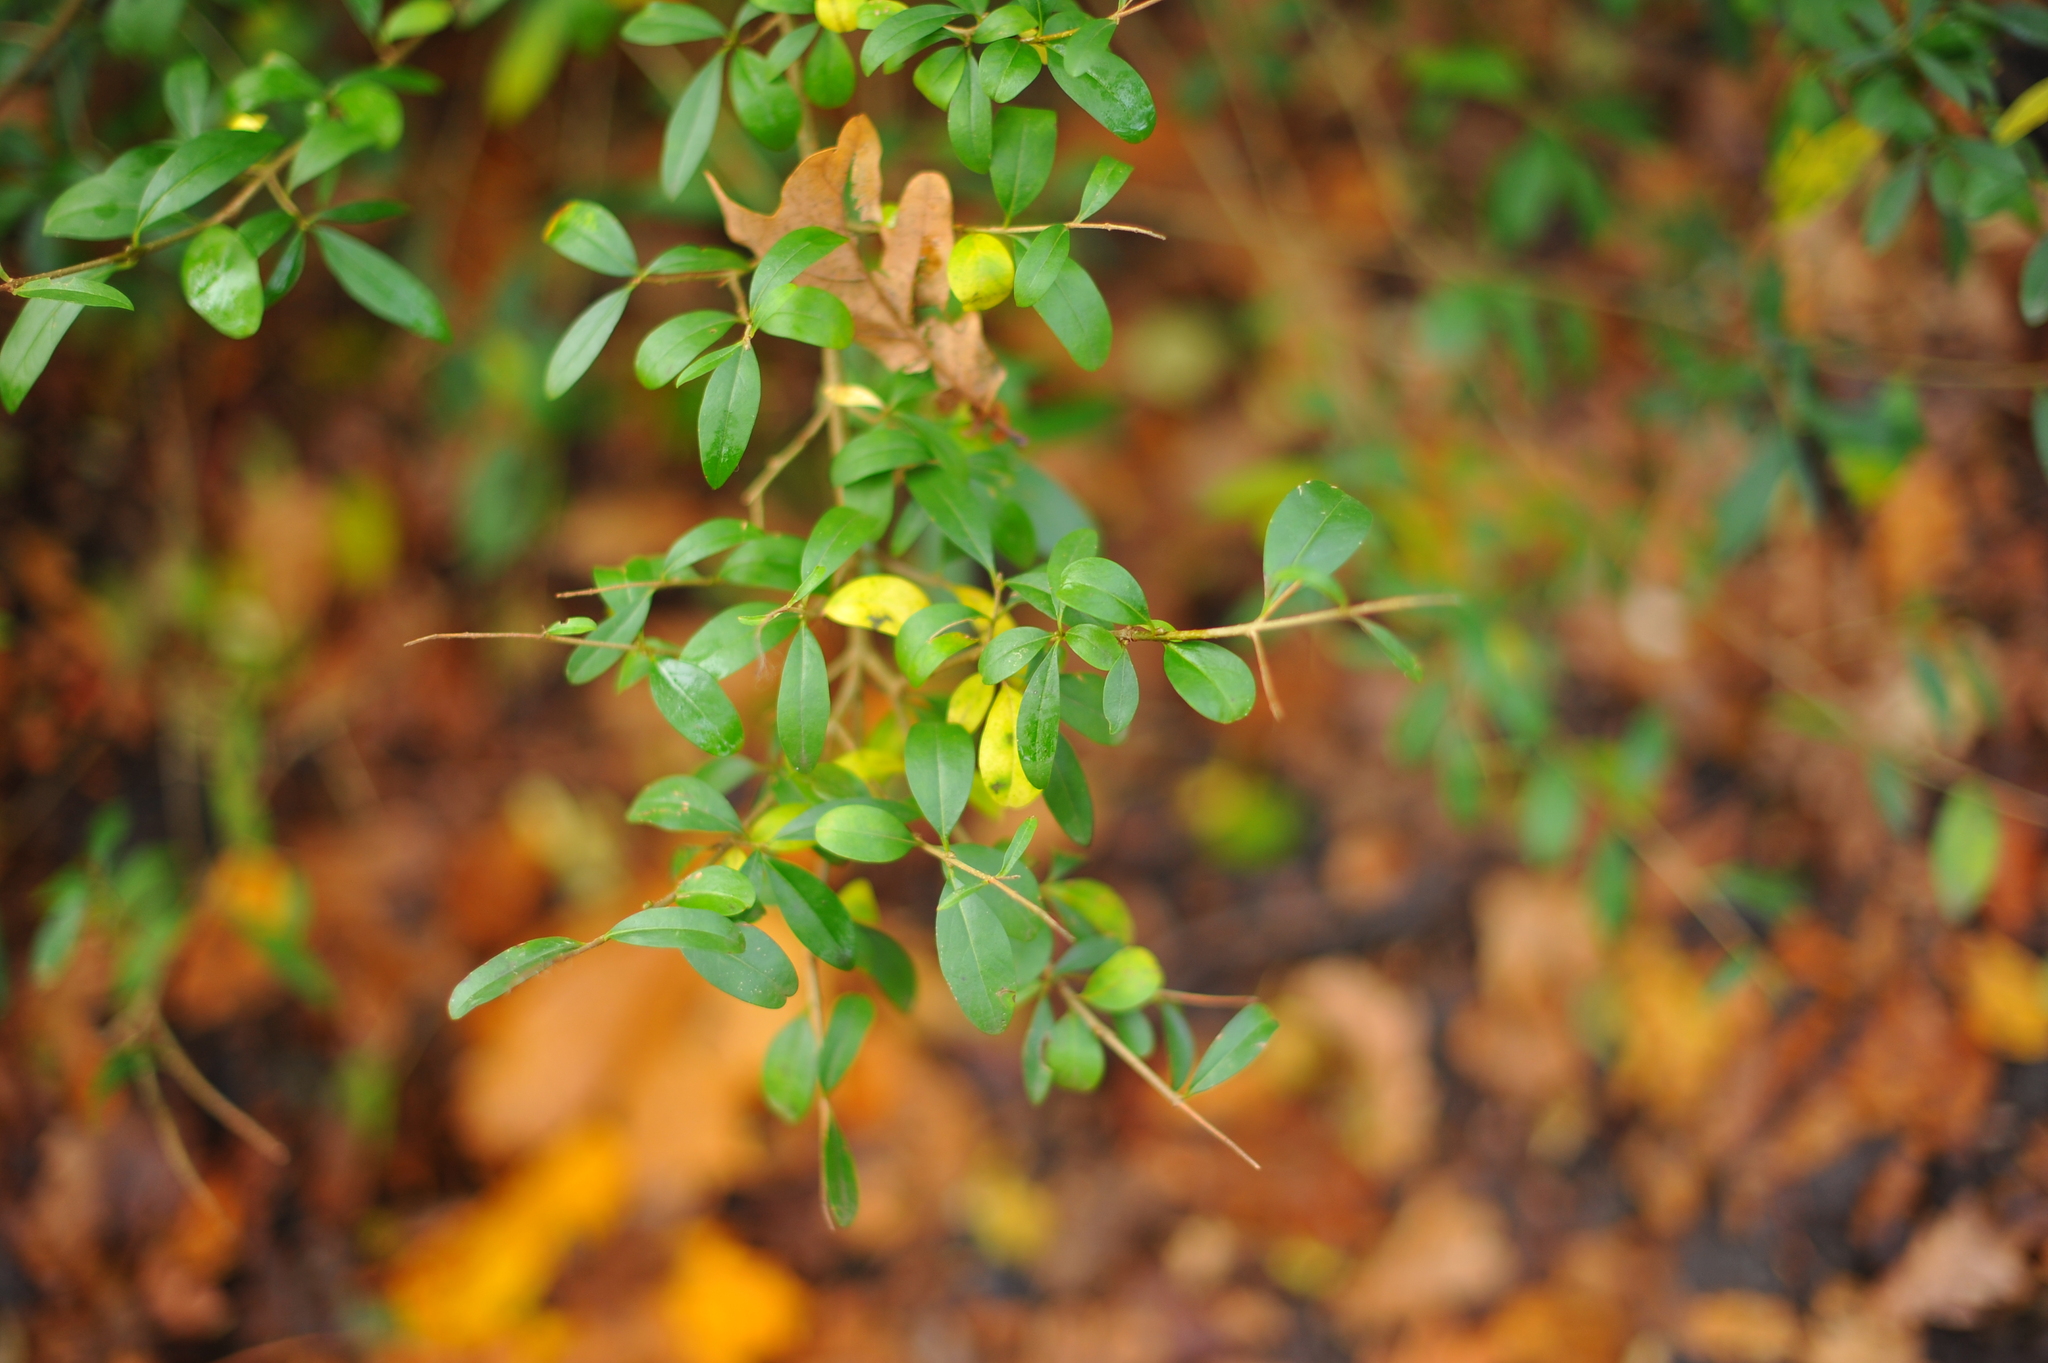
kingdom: Plantae
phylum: Tracheophyta
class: Magnoliopsida
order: Lamiales
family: Oleaceae
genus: Ligustrum
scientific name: Ligustrum vulgare
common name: Wild privet
